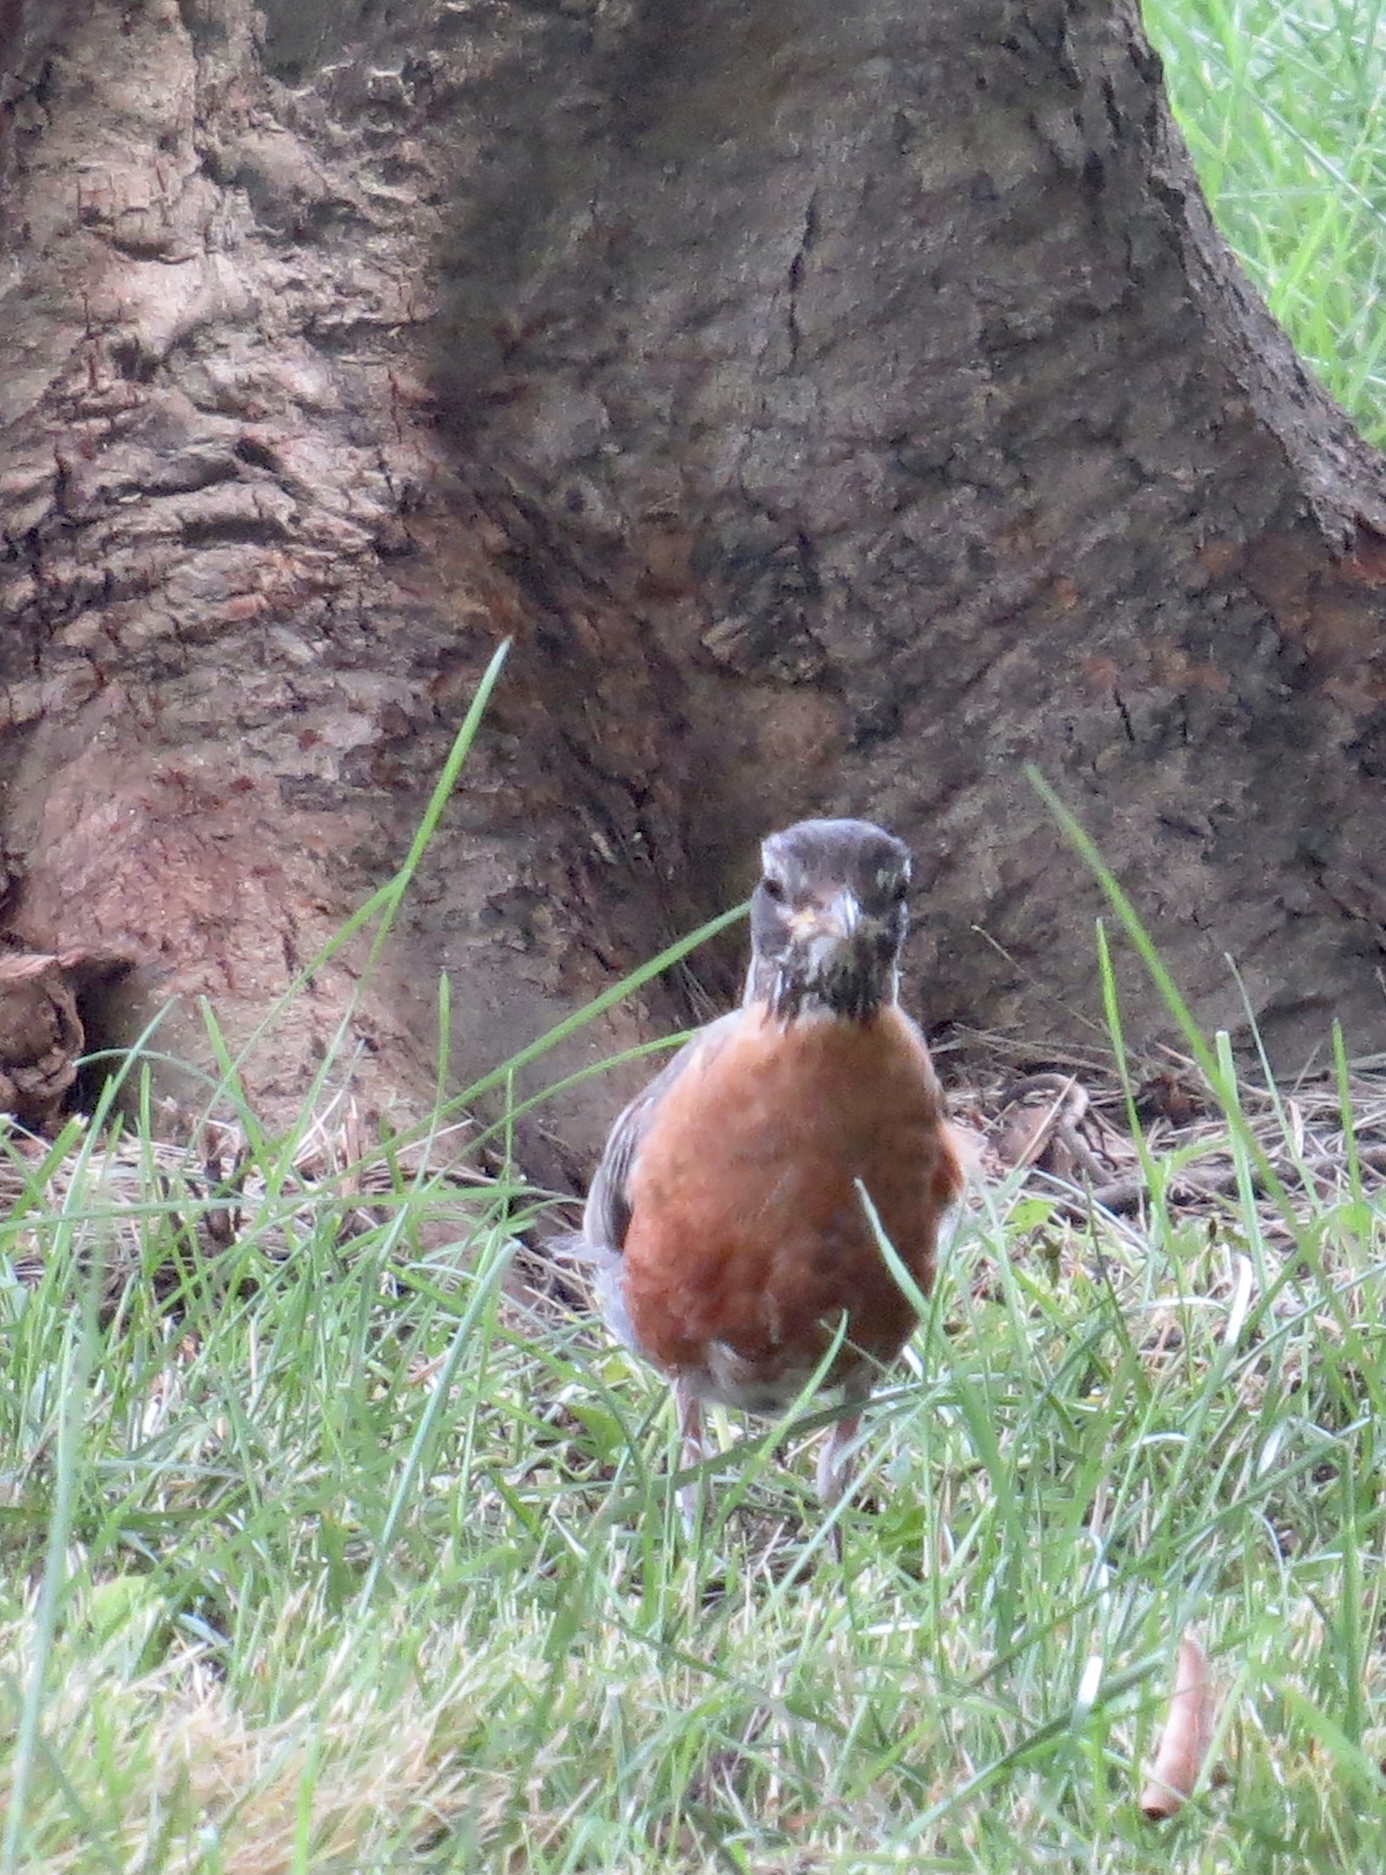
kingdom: Animalia
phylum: Chordata
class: Aves
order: Passeriformes
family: Turdidae
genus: Turdus
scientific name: Turdus migratorius
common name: American robin
